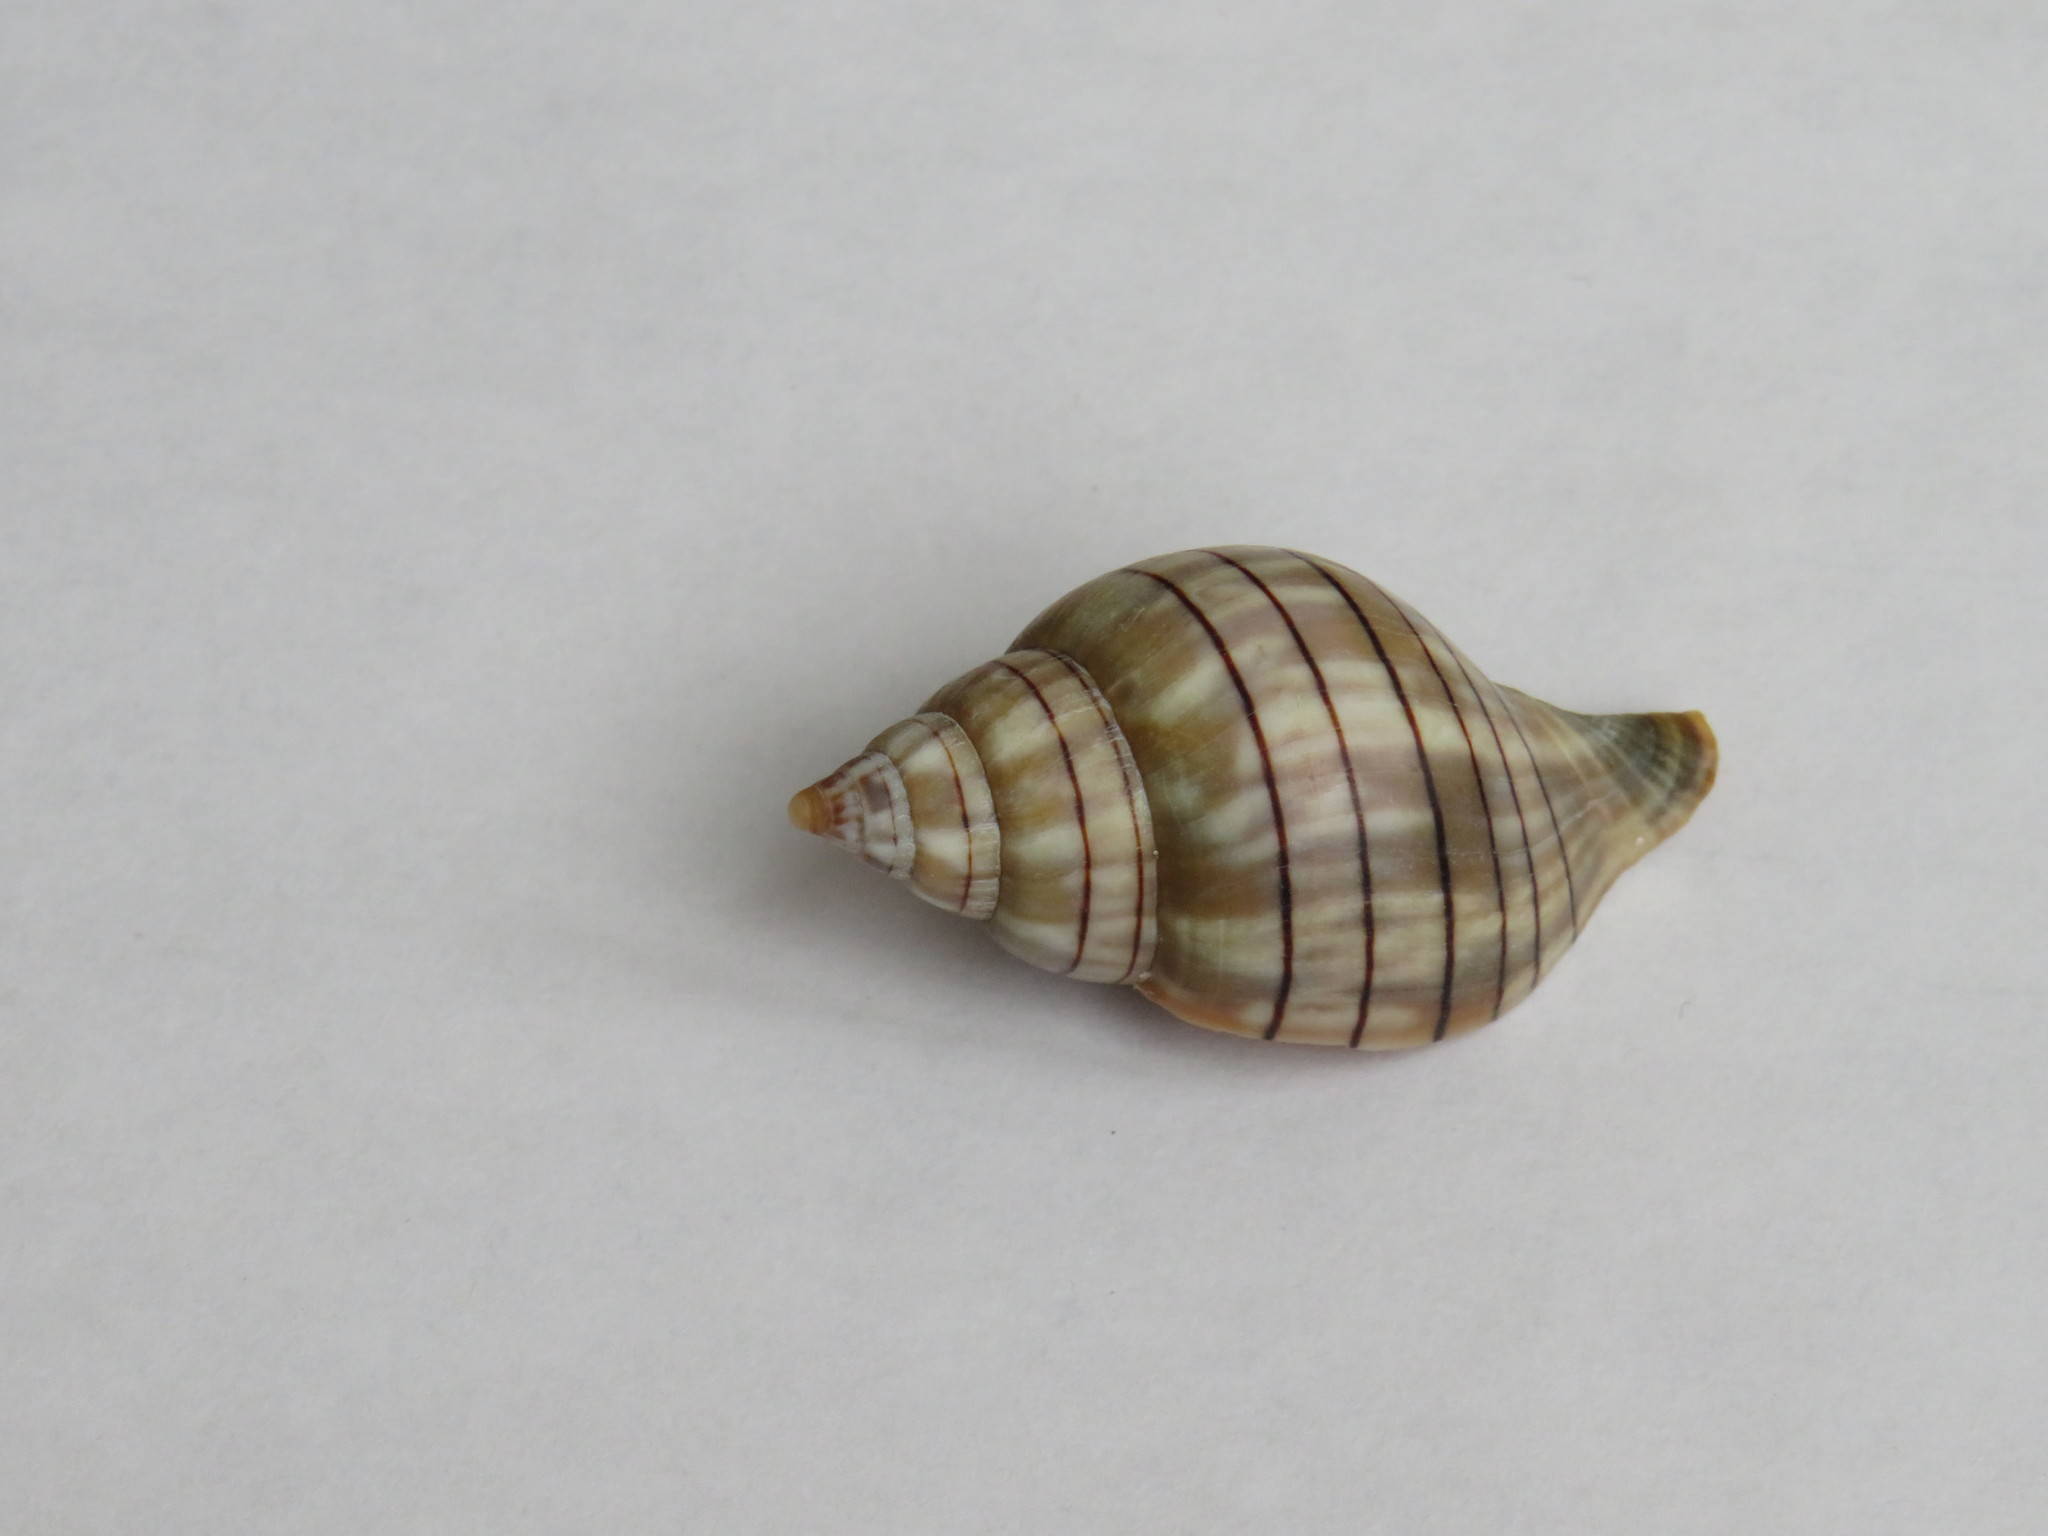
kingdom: Animalia
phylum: Mollusca
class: Gastropoda
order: Neogastropoda
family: Fasciolariidae
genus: Cinctura
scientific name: Cinctura hunteria
